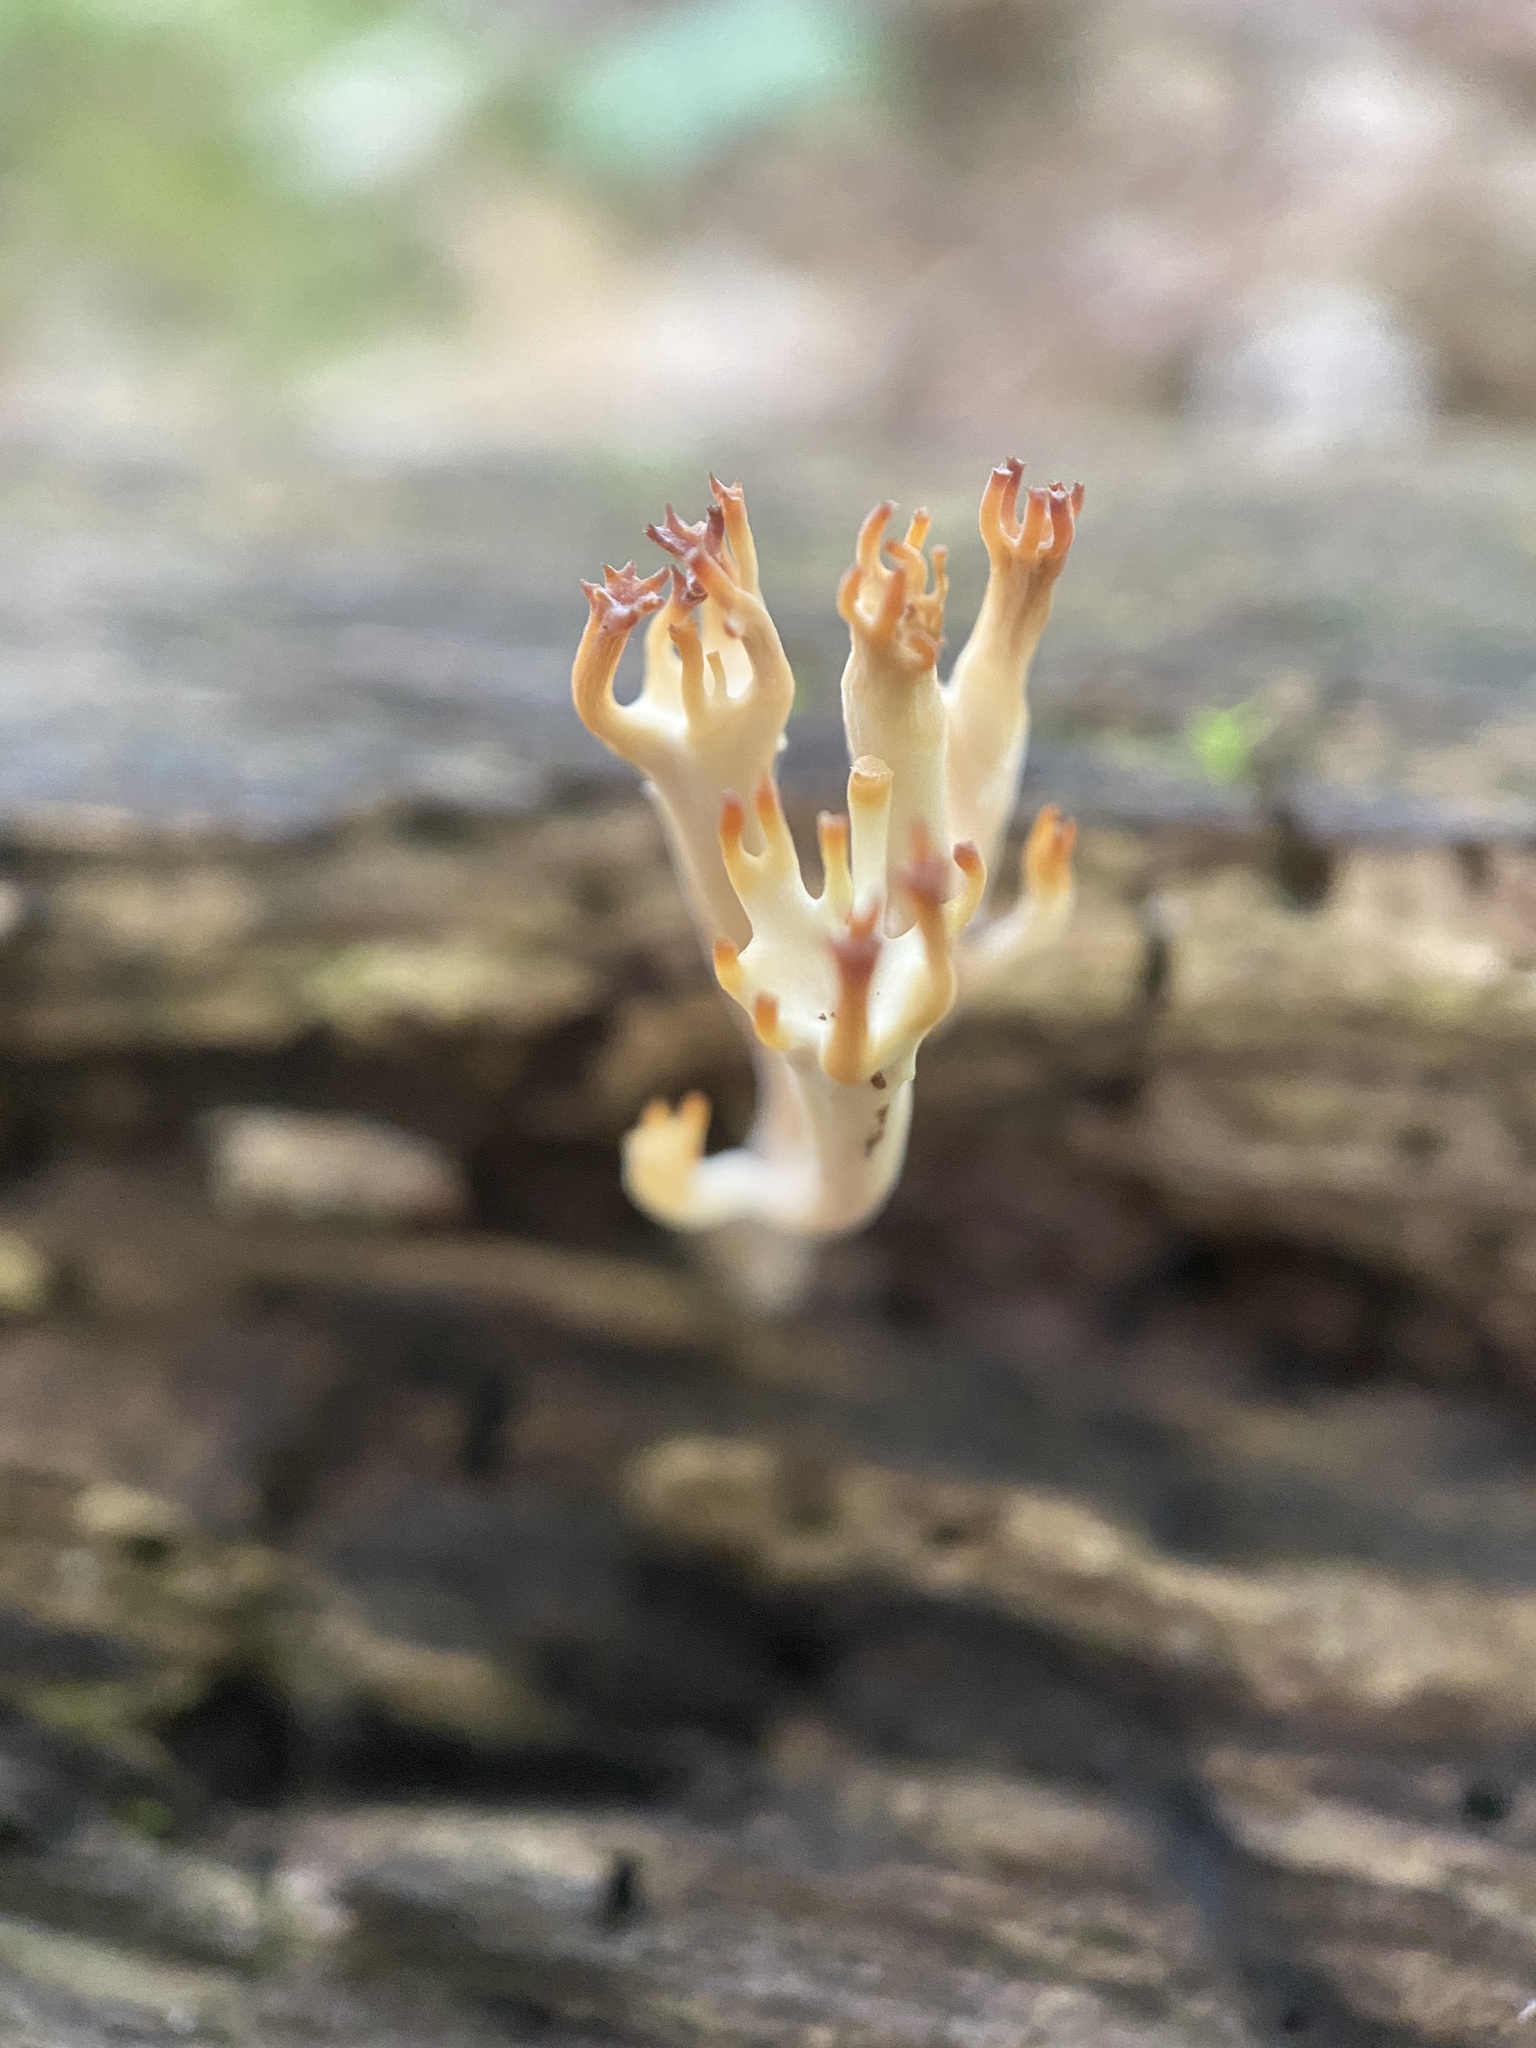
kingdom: Fungi
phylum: Basidiomycota
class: Agaricomycetes
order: Russulales
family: Auriscalpiaceae
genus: Artomyces
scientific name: Artomyces pyxidatus
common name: Crown-tipped coral fungus
